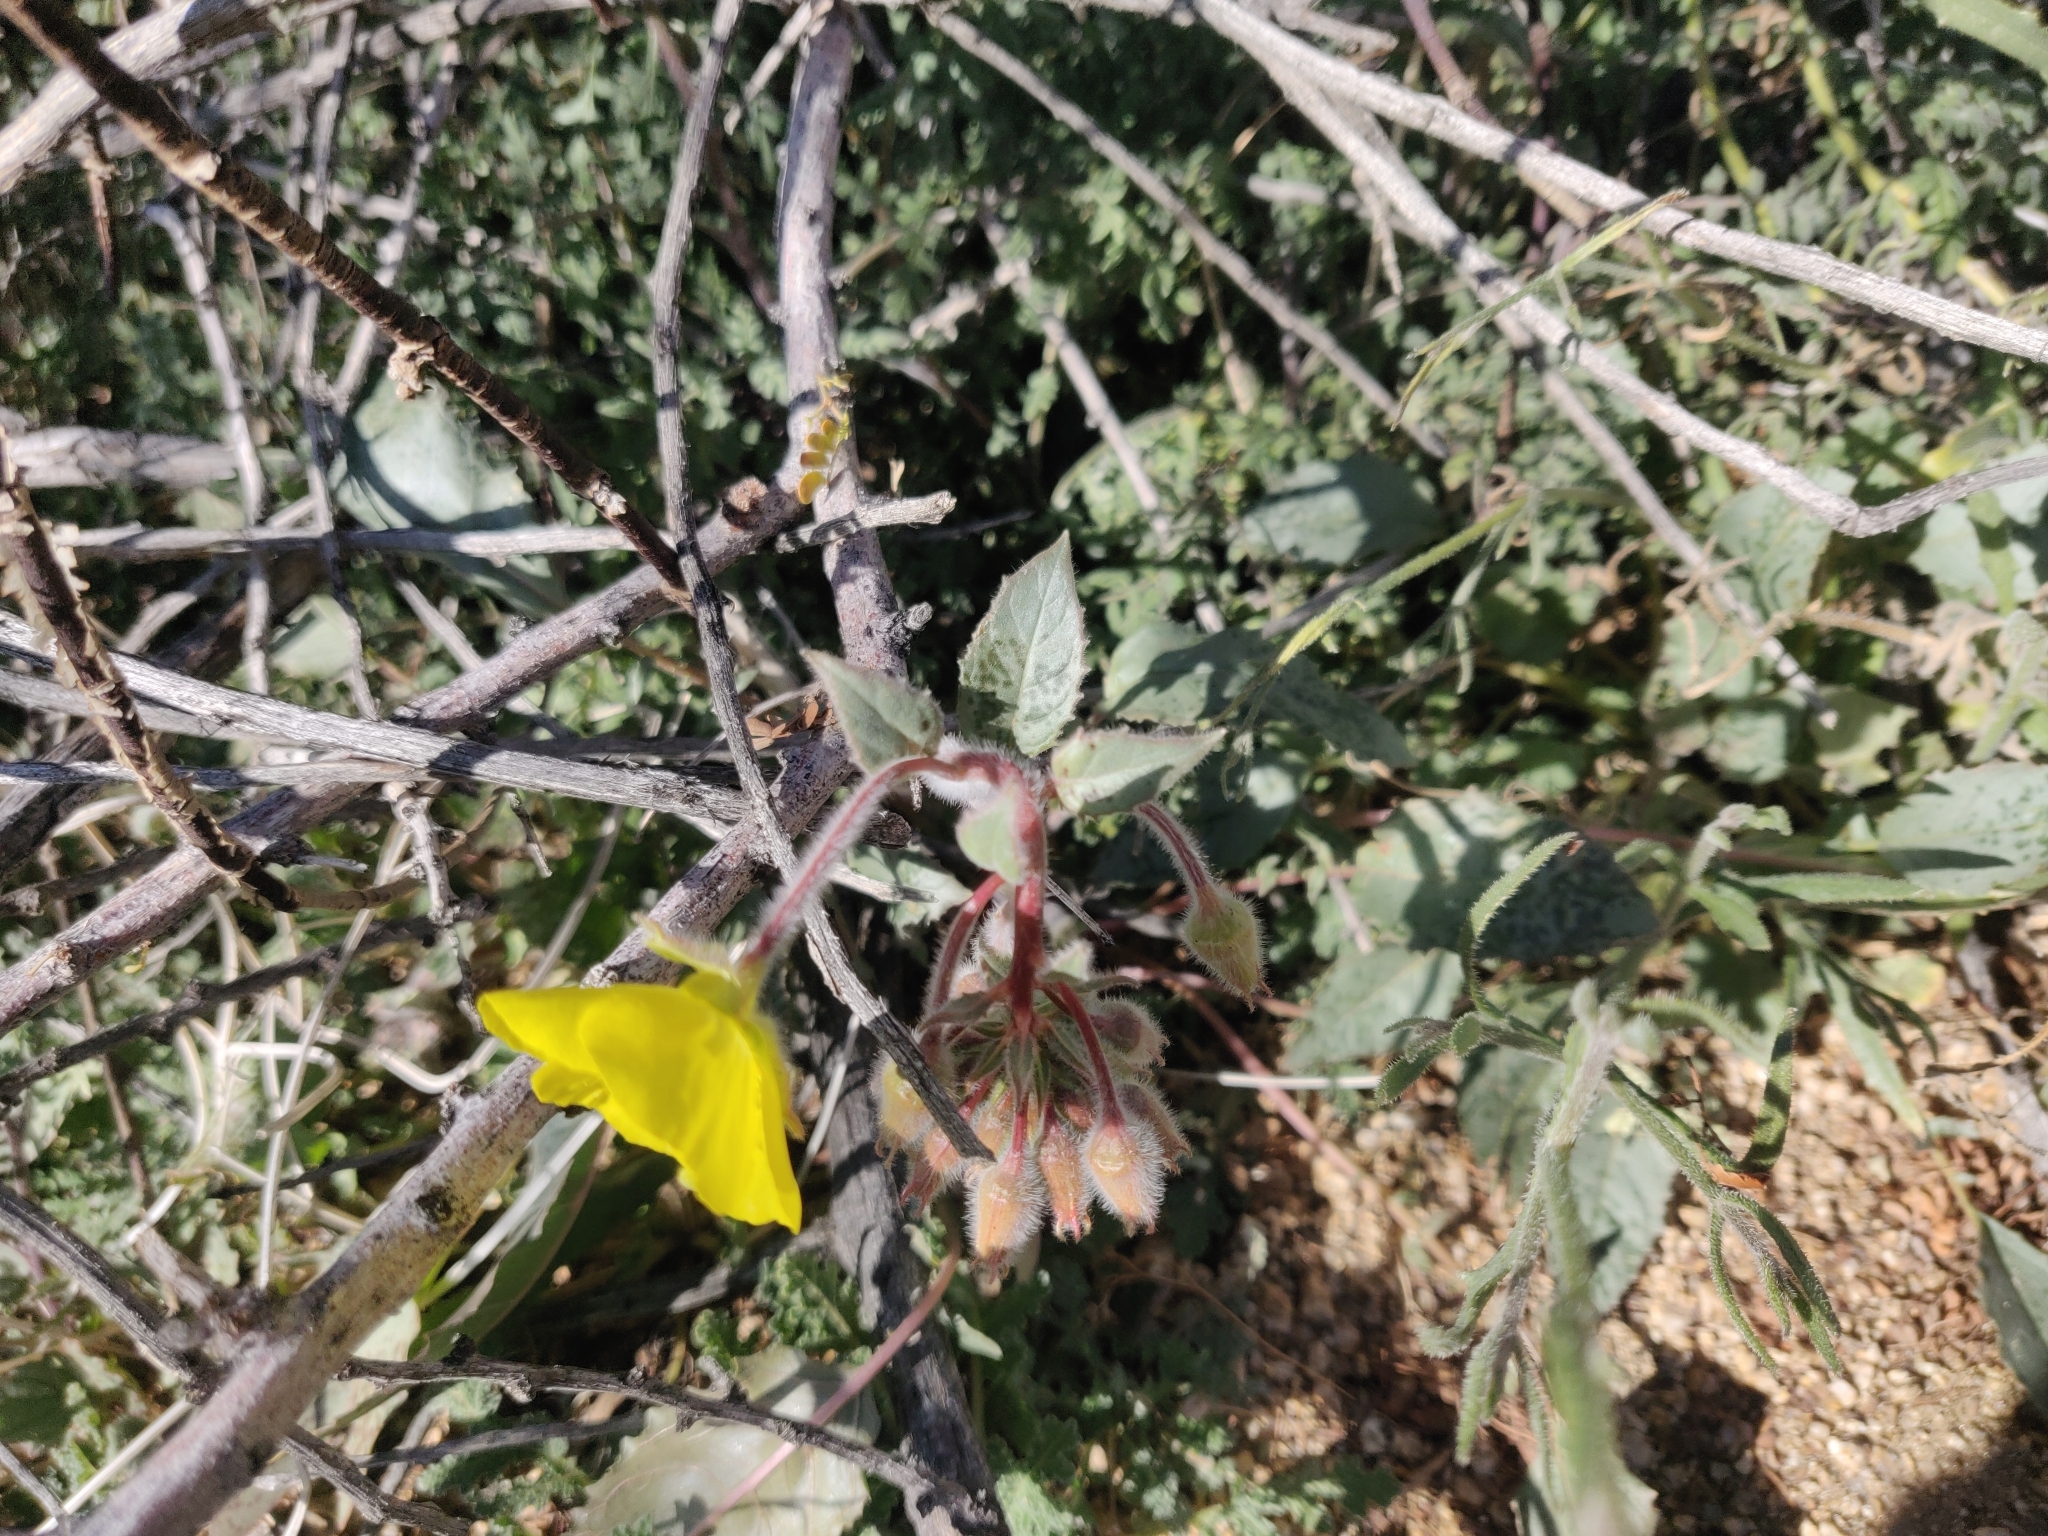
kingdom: Plantae
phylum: Tracheophyta
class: Magnoliopsida
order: Myrtales
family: Onagraceae
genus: Chylismia
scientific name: Chylismia brevipes
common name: Yellow cups
